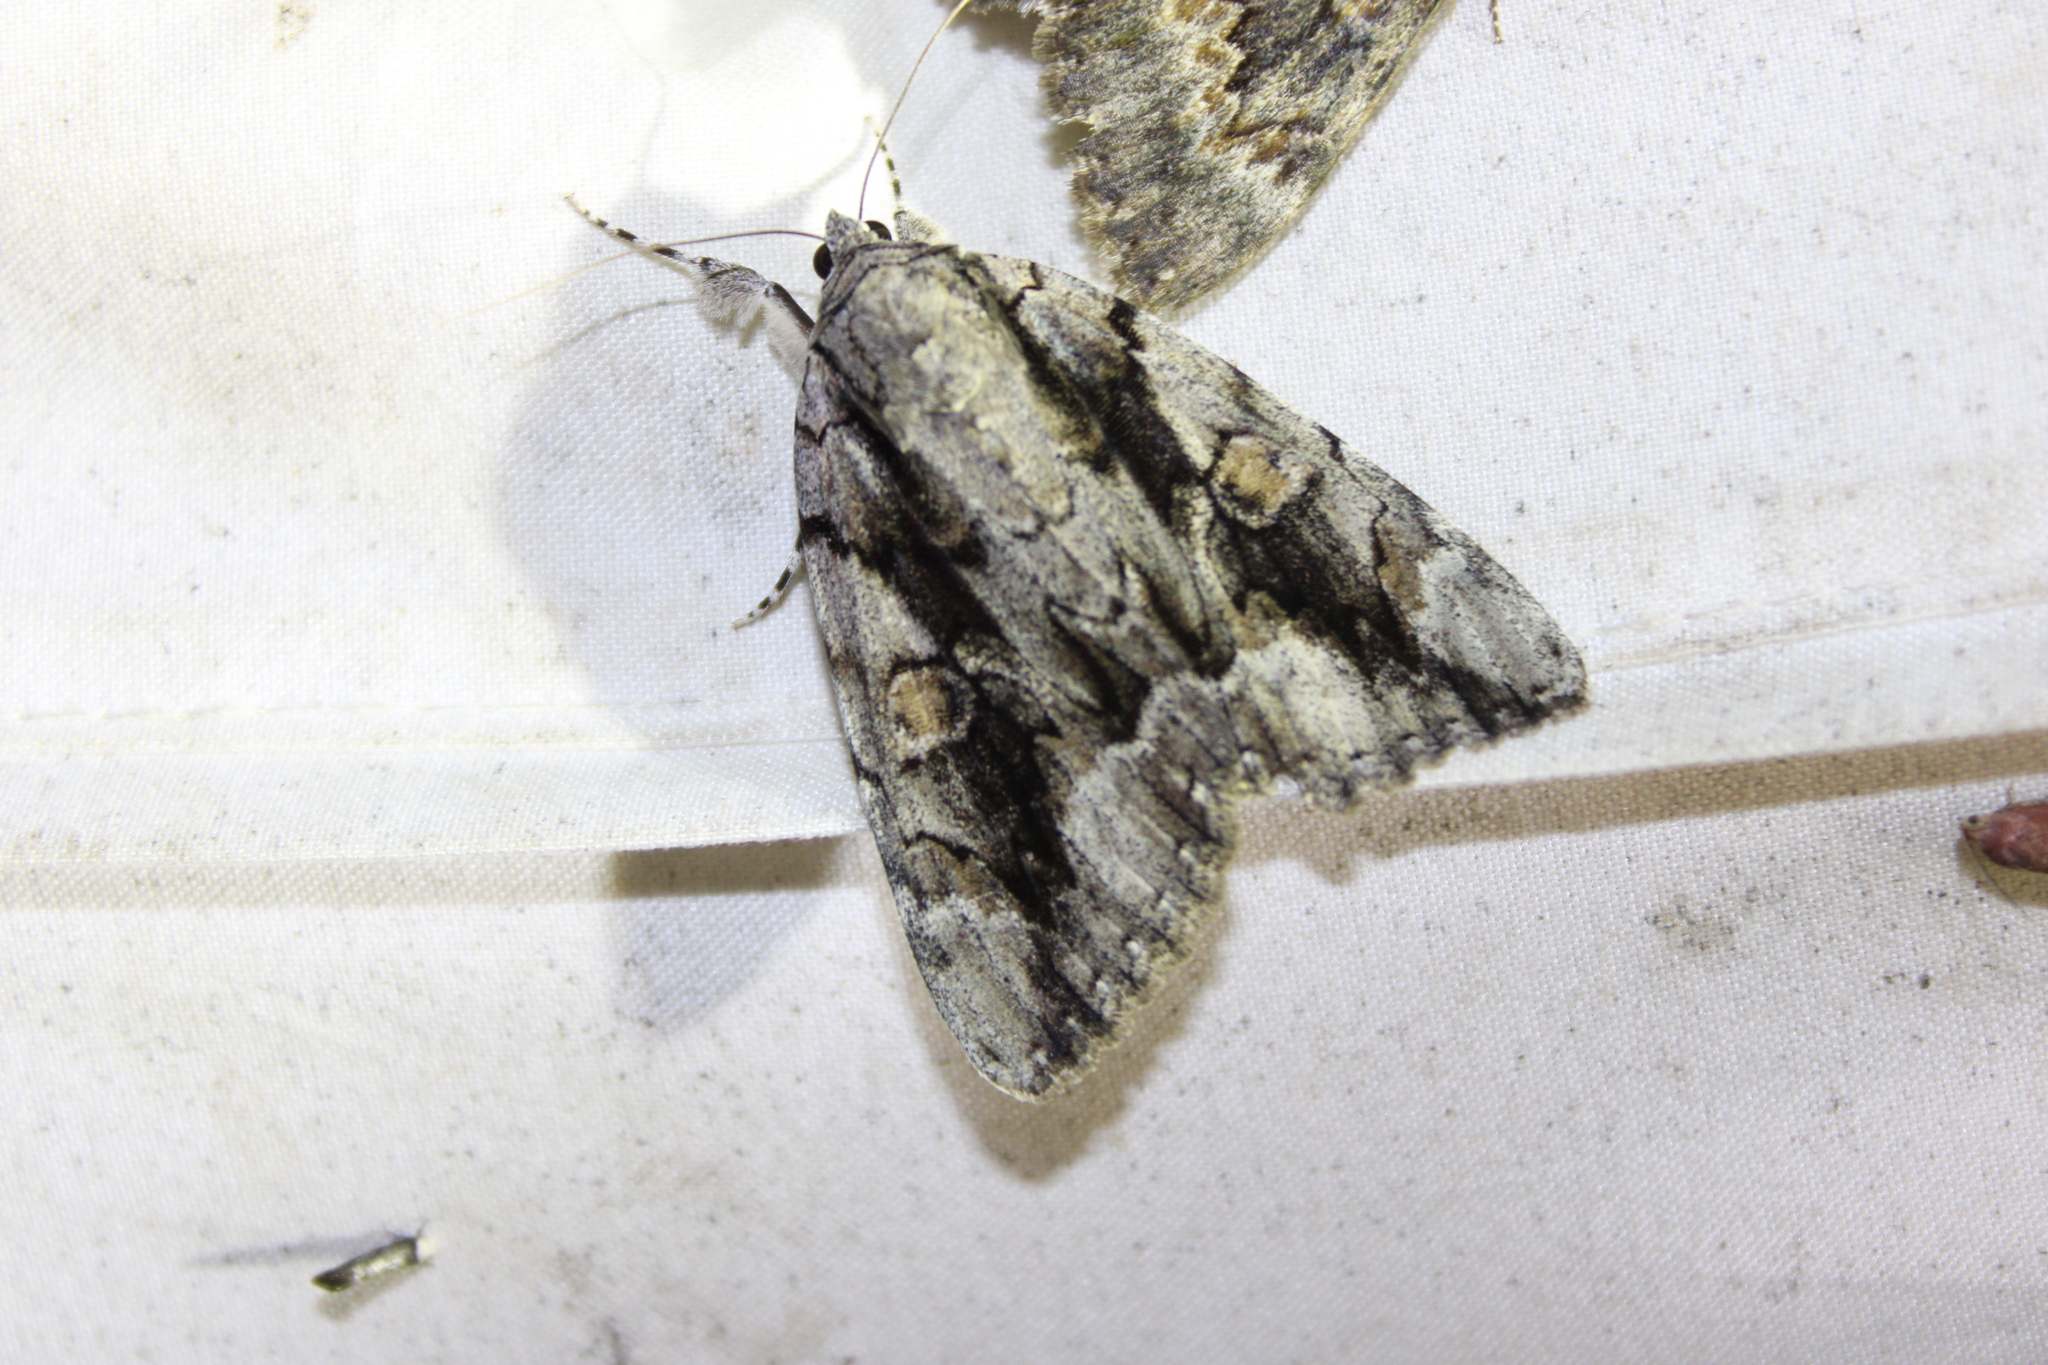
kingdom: Animalia
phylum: Arthropoda
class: Insecta
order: Lepidoptera
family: Erebidae
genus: Catocala
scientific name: Catocala flebilis
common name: Mournful underwing
